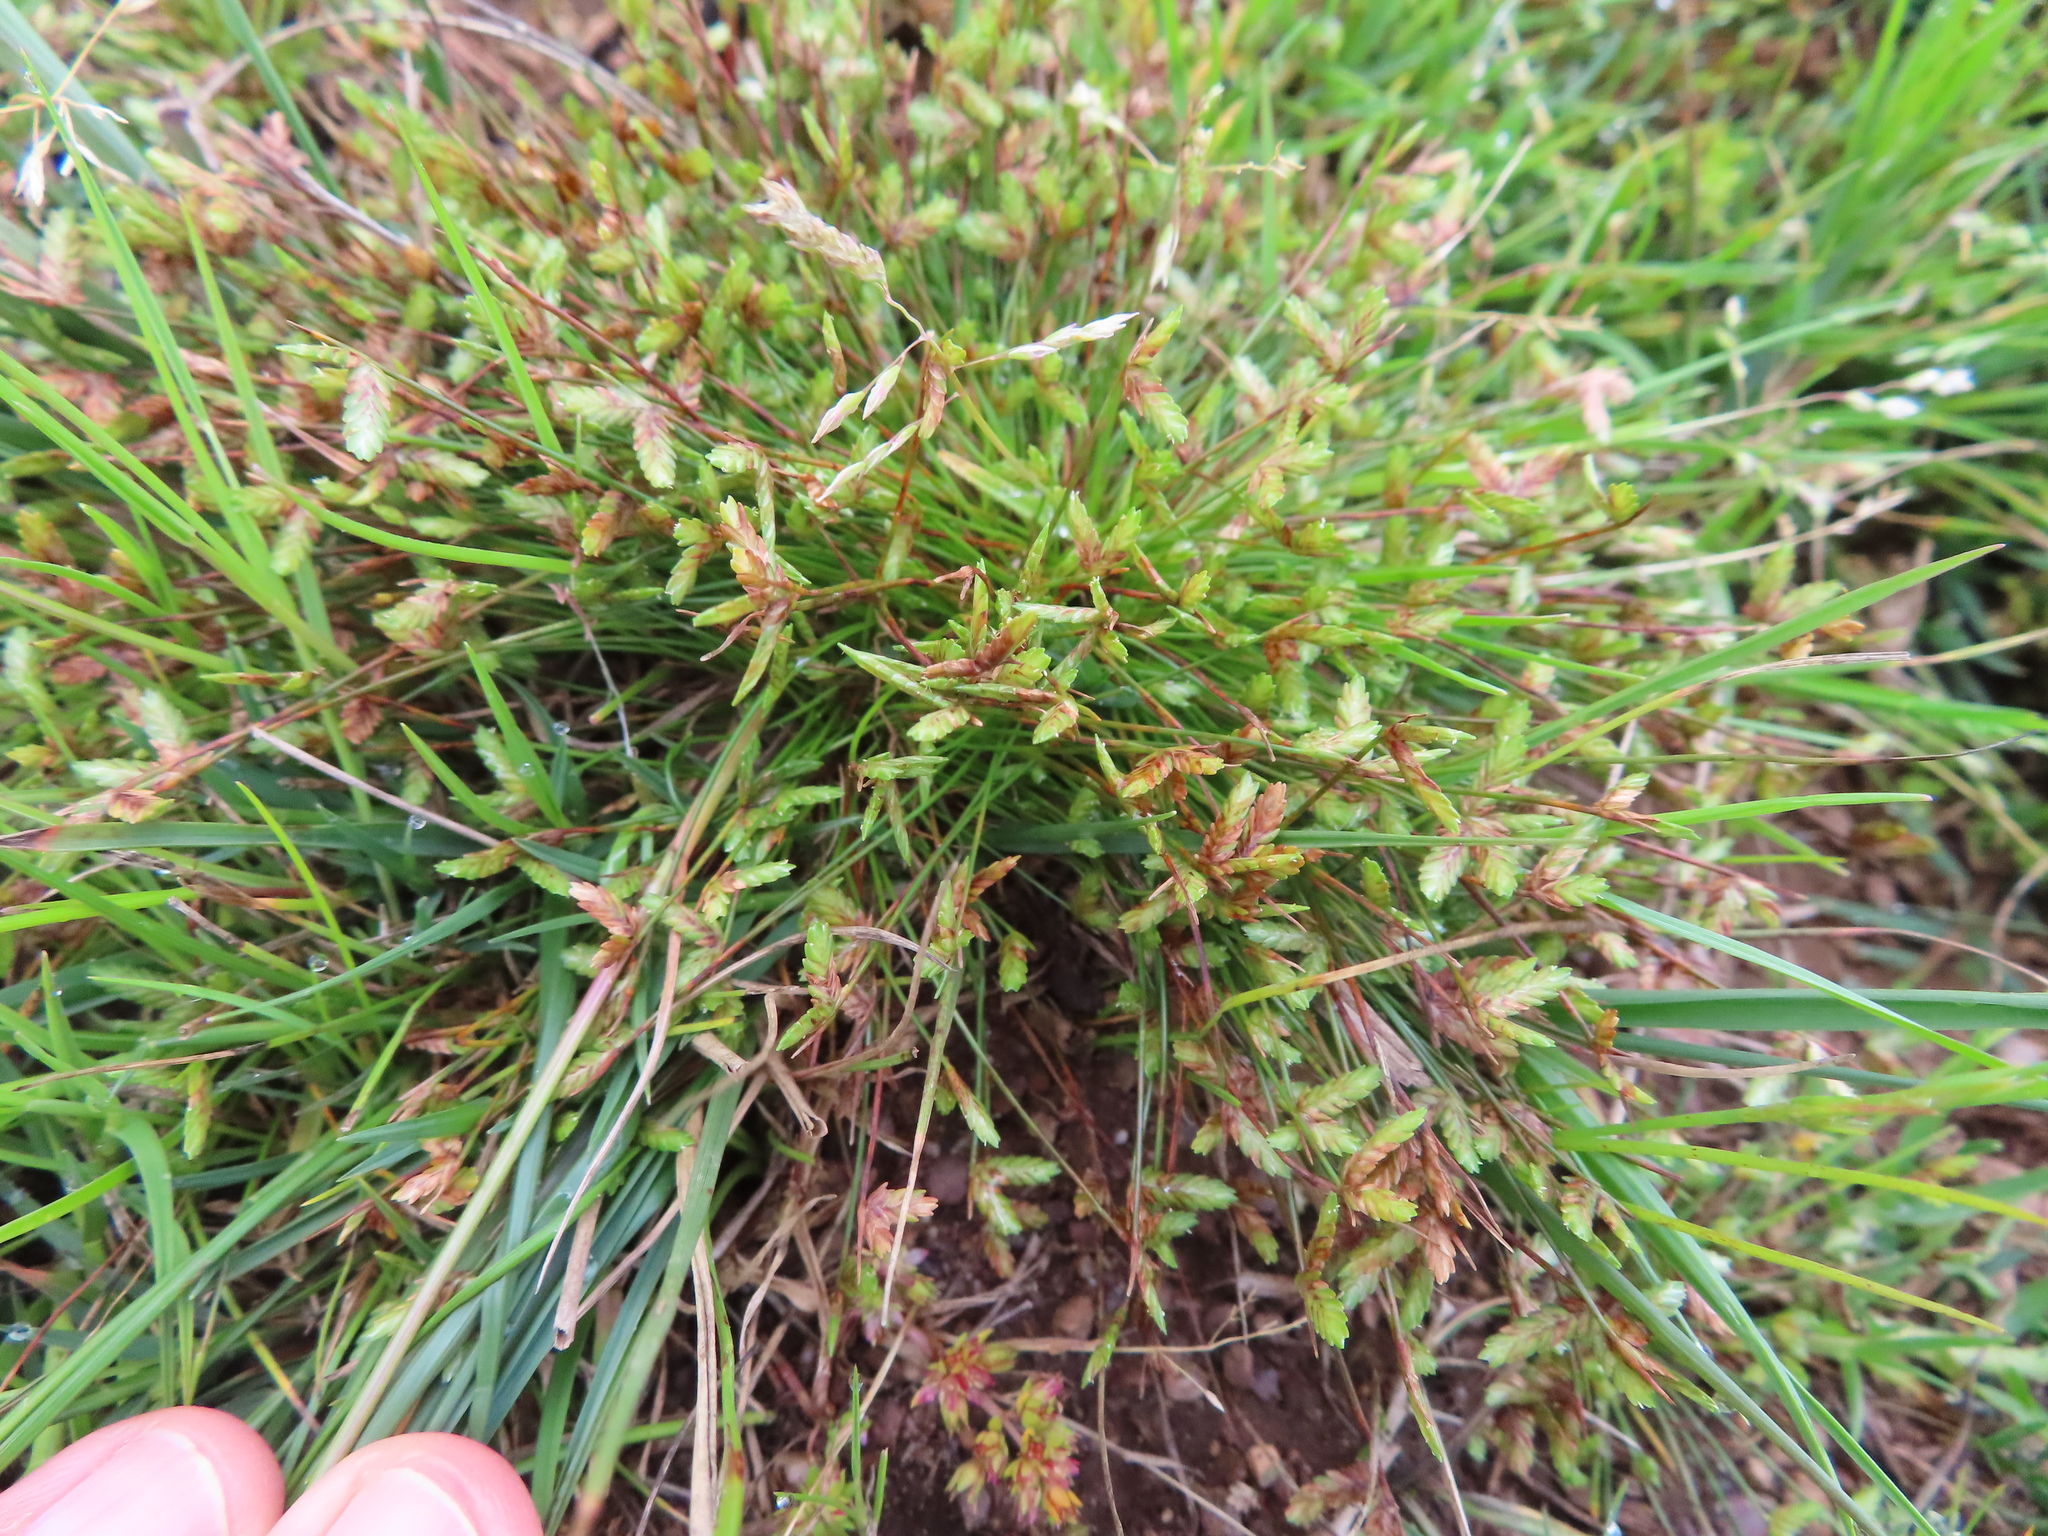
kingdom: Plantae
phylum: Tracheophyta
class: Liliopsida
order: Poales
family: Cyperaceae
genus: Isolepis
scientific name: Isolepis levynsiana
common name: Sedge
